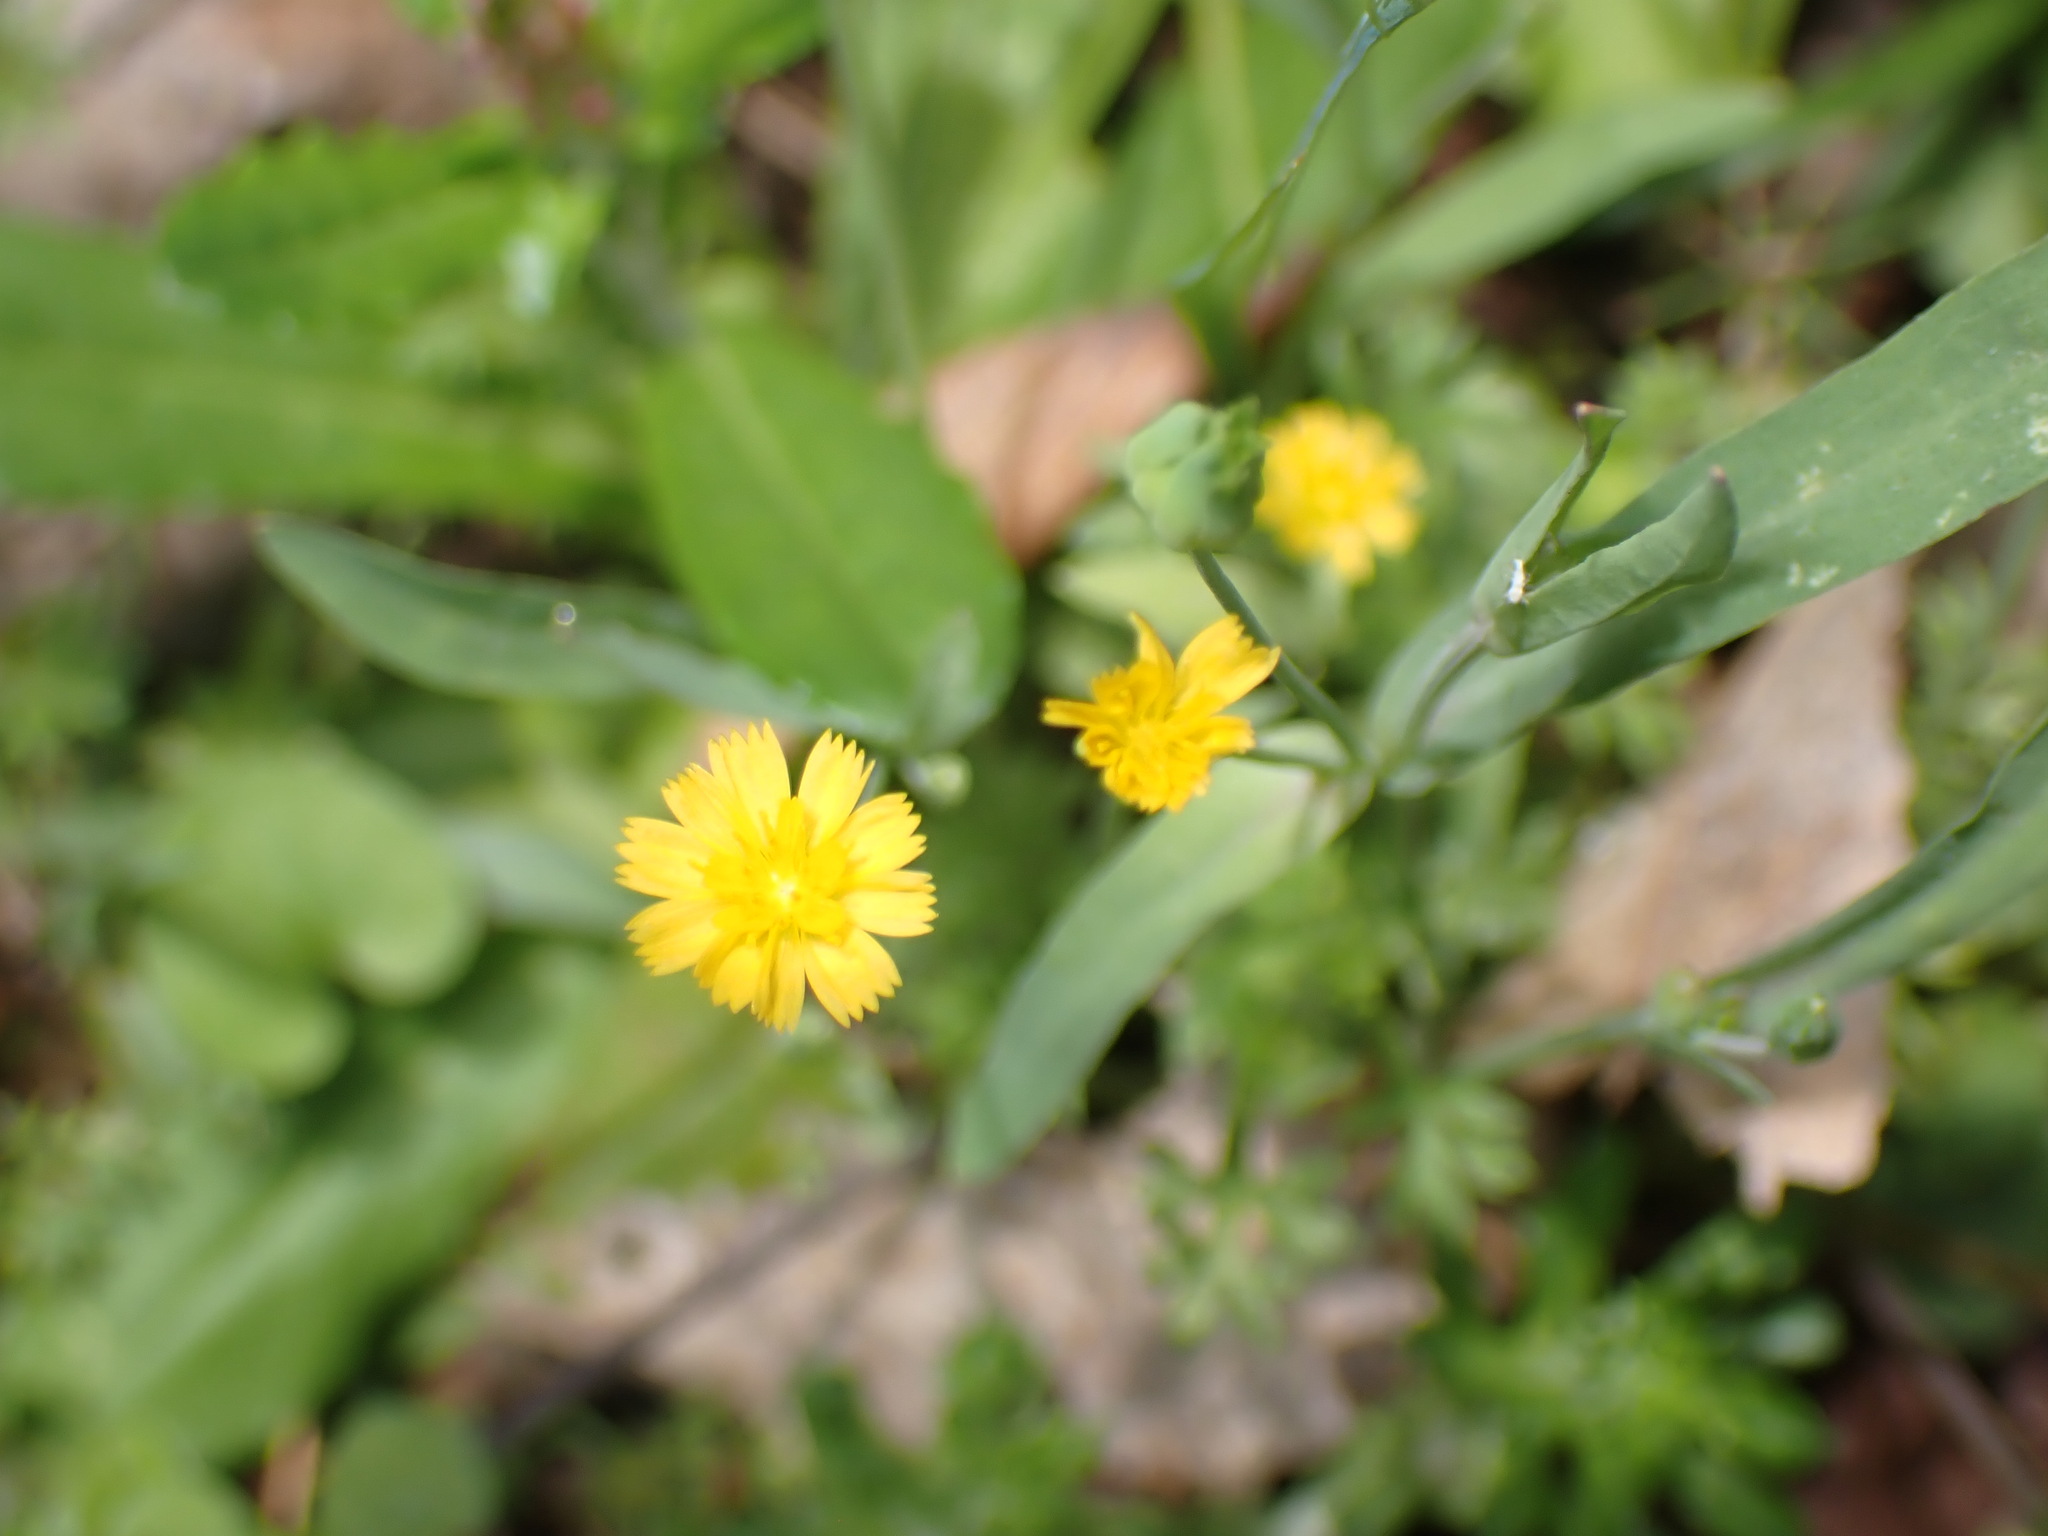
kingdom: Plantae
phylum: Tracheophyta
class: Magnoliopsida
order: Asterales
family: Asteraceae
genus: Krigia
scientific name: Krigia cespitosa
